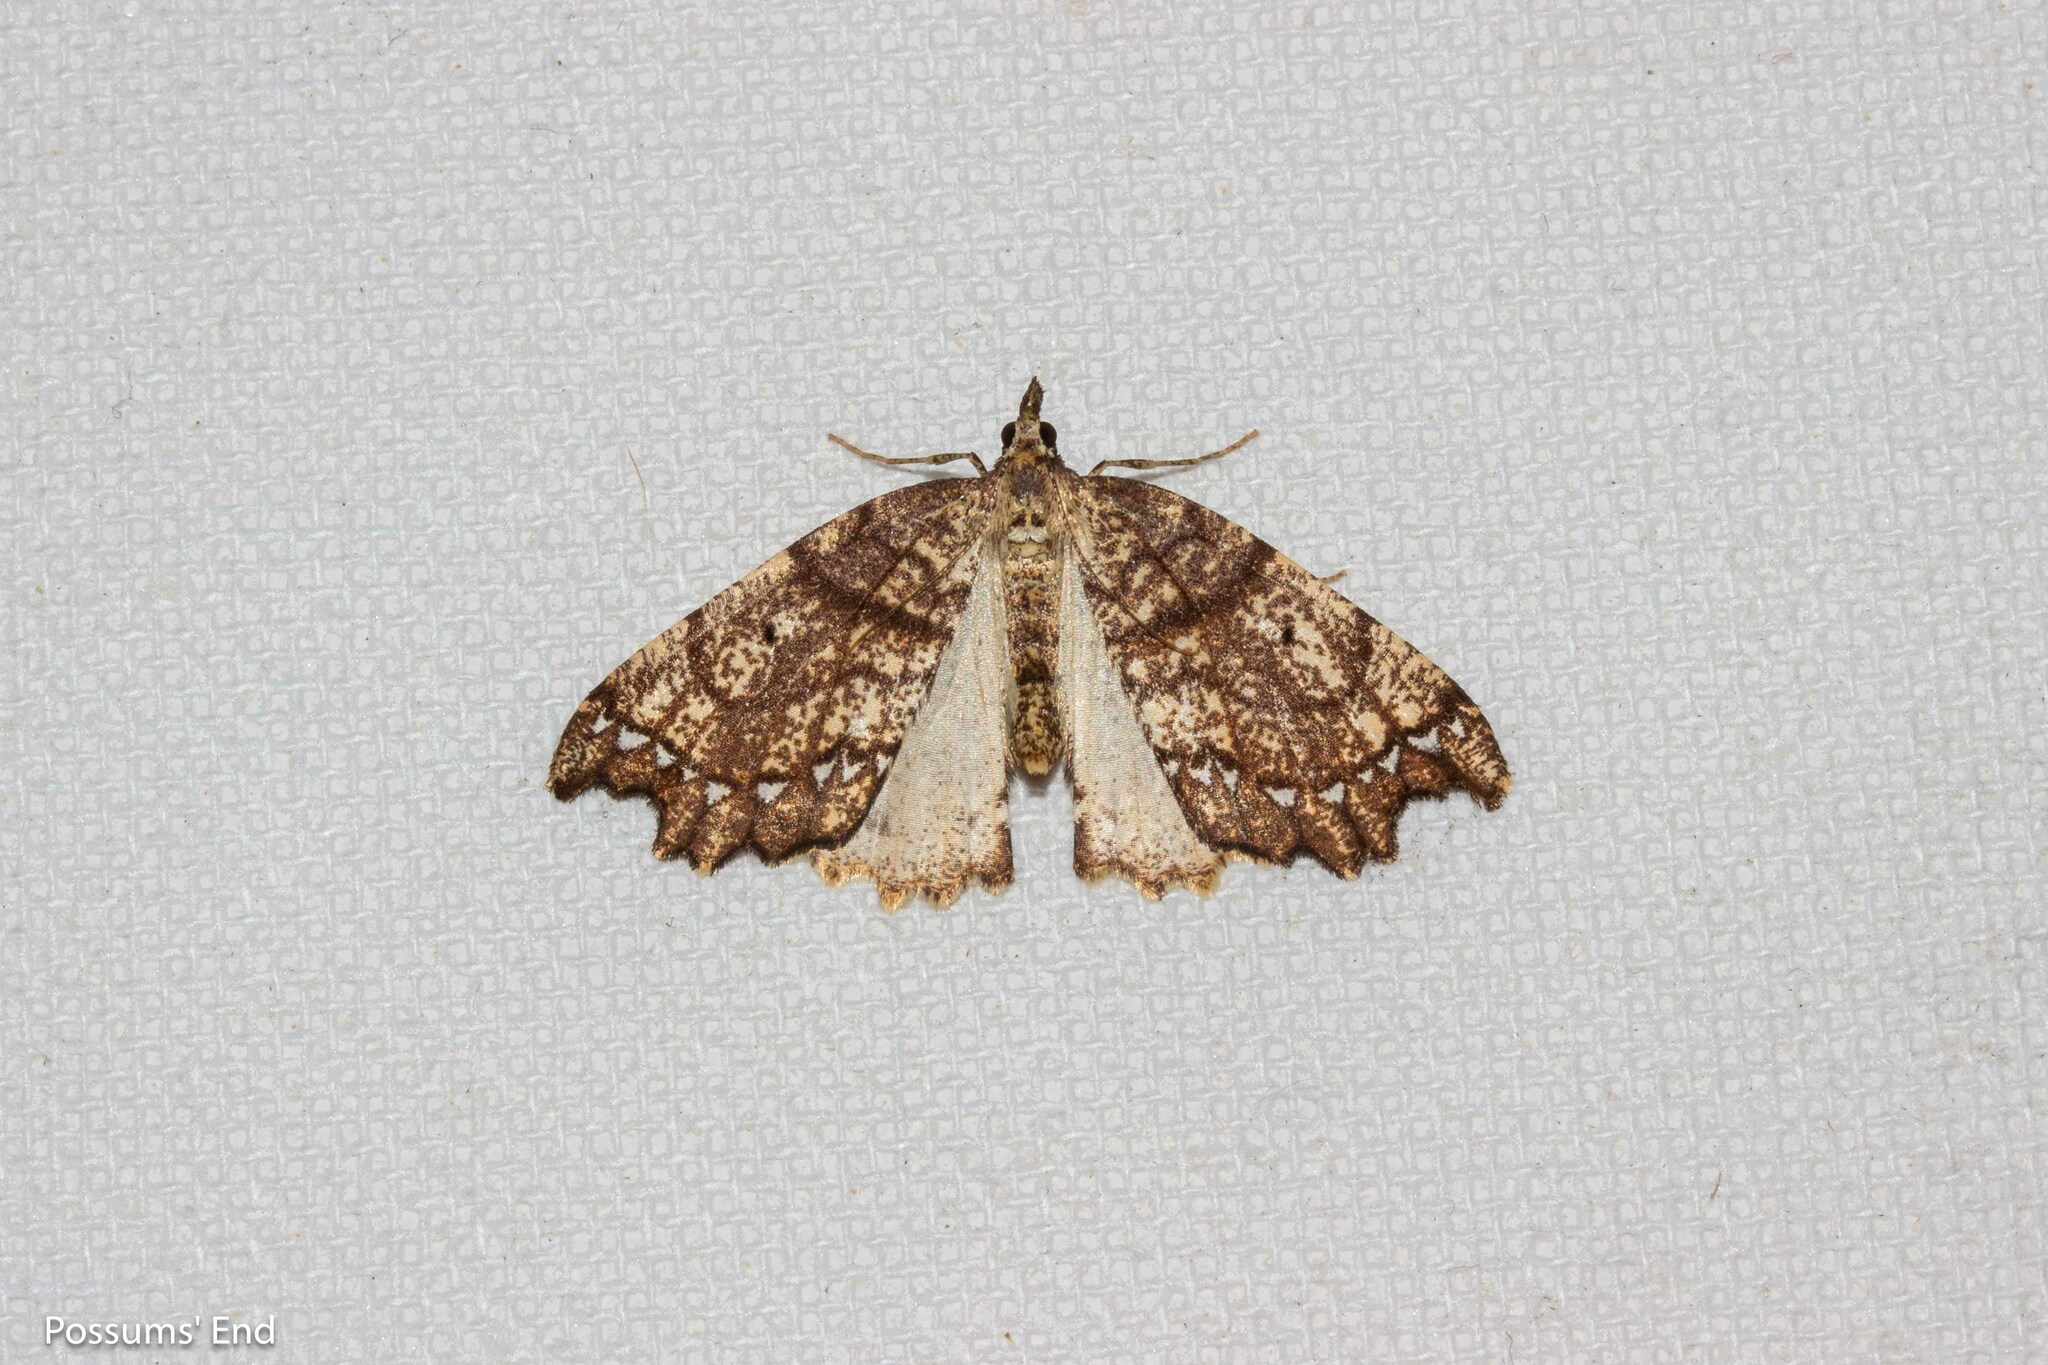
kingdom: Animalia
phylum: Arthropoda
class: Insecta
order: Lepidoptera
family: Geometridae
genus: Chalastra
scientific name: Chalastra pellurgata
